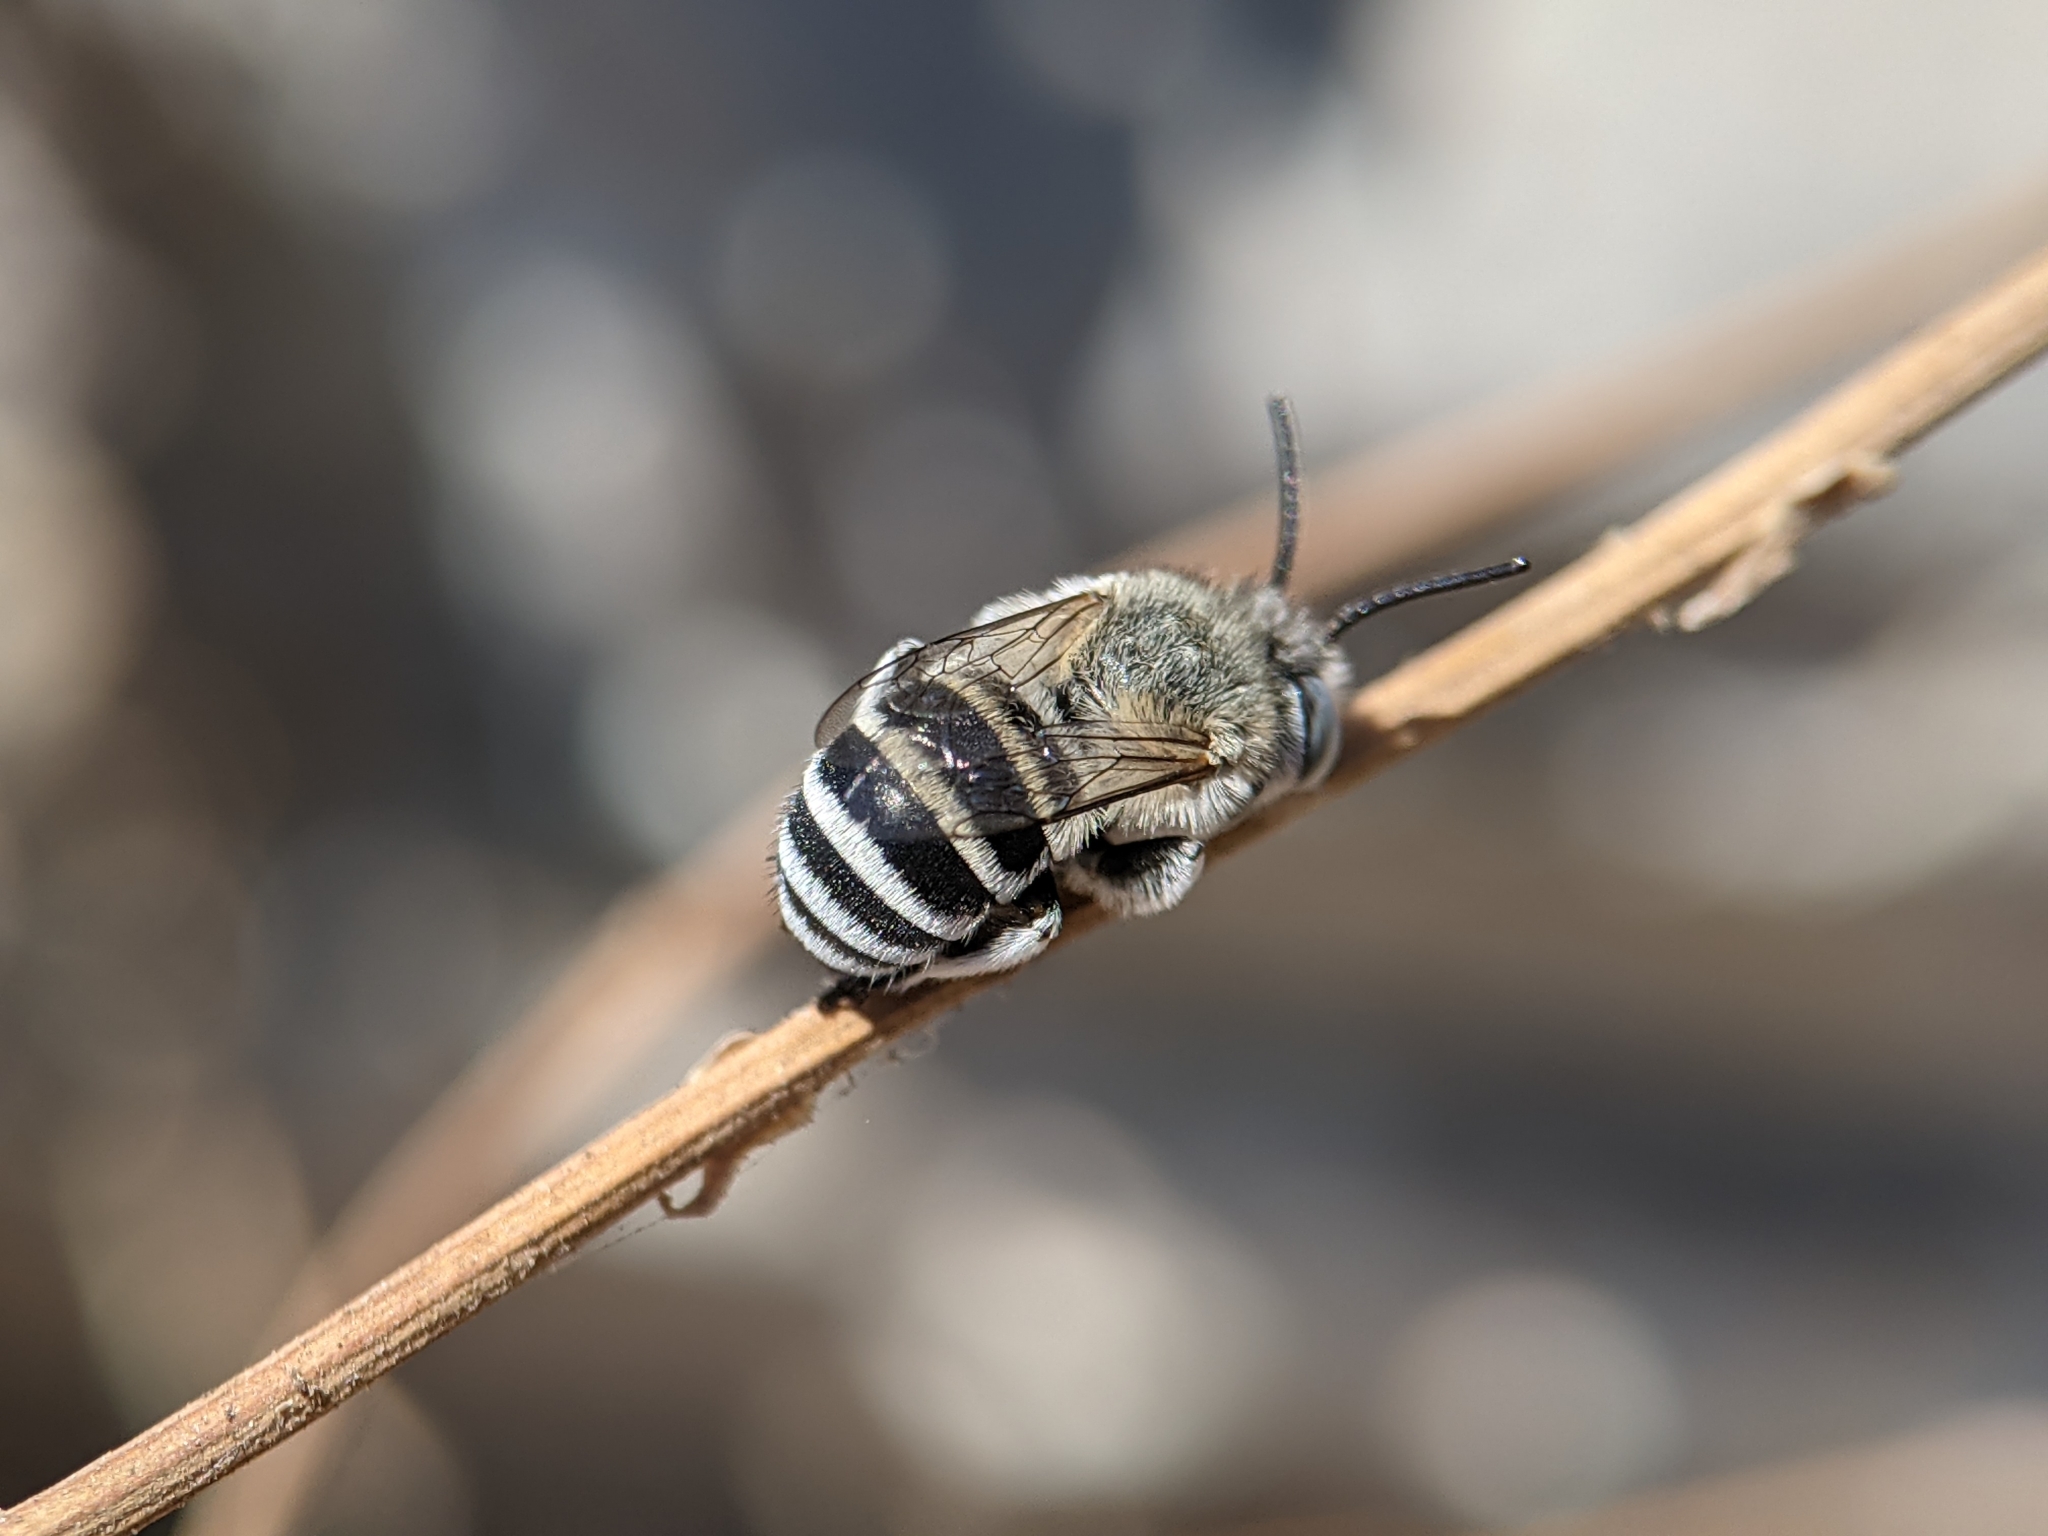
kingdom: Animalia
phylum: Arthropoda
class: Insecta
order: Hymenoptera
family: Apidae
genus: Amegilla
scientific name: Amegilla albigena
